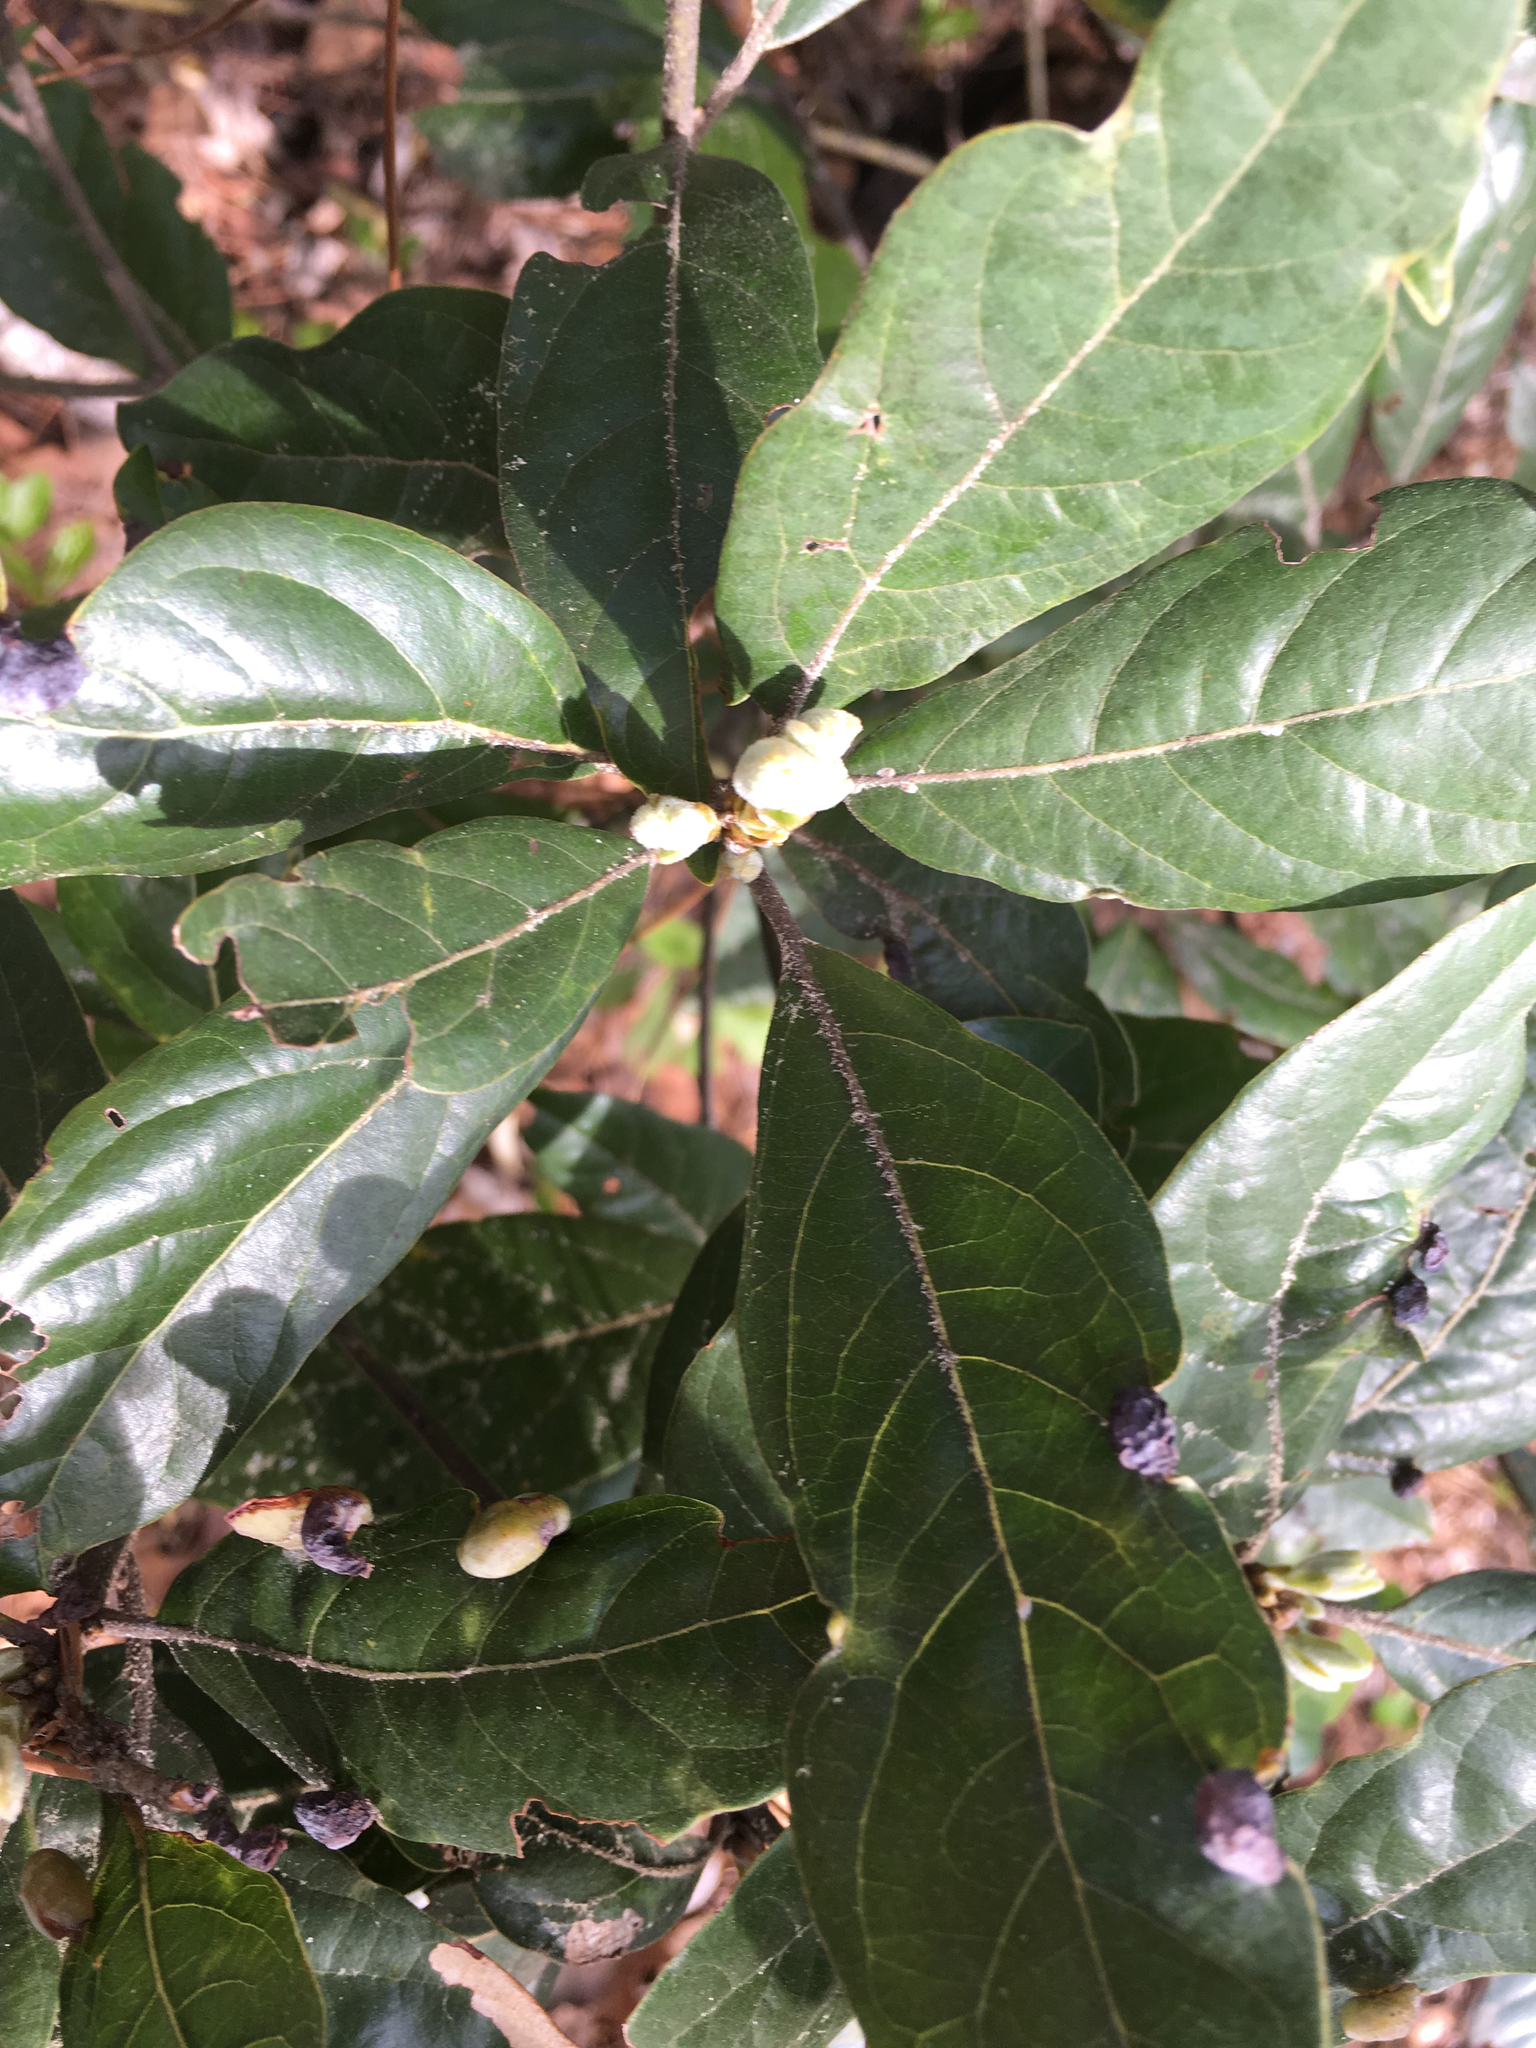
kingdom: Plantae
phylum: Tracheophyta
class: Magnoliopsida
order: Laurales
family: Lauraceae
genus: Persea
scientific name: Persea palustris
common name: Swampbay
